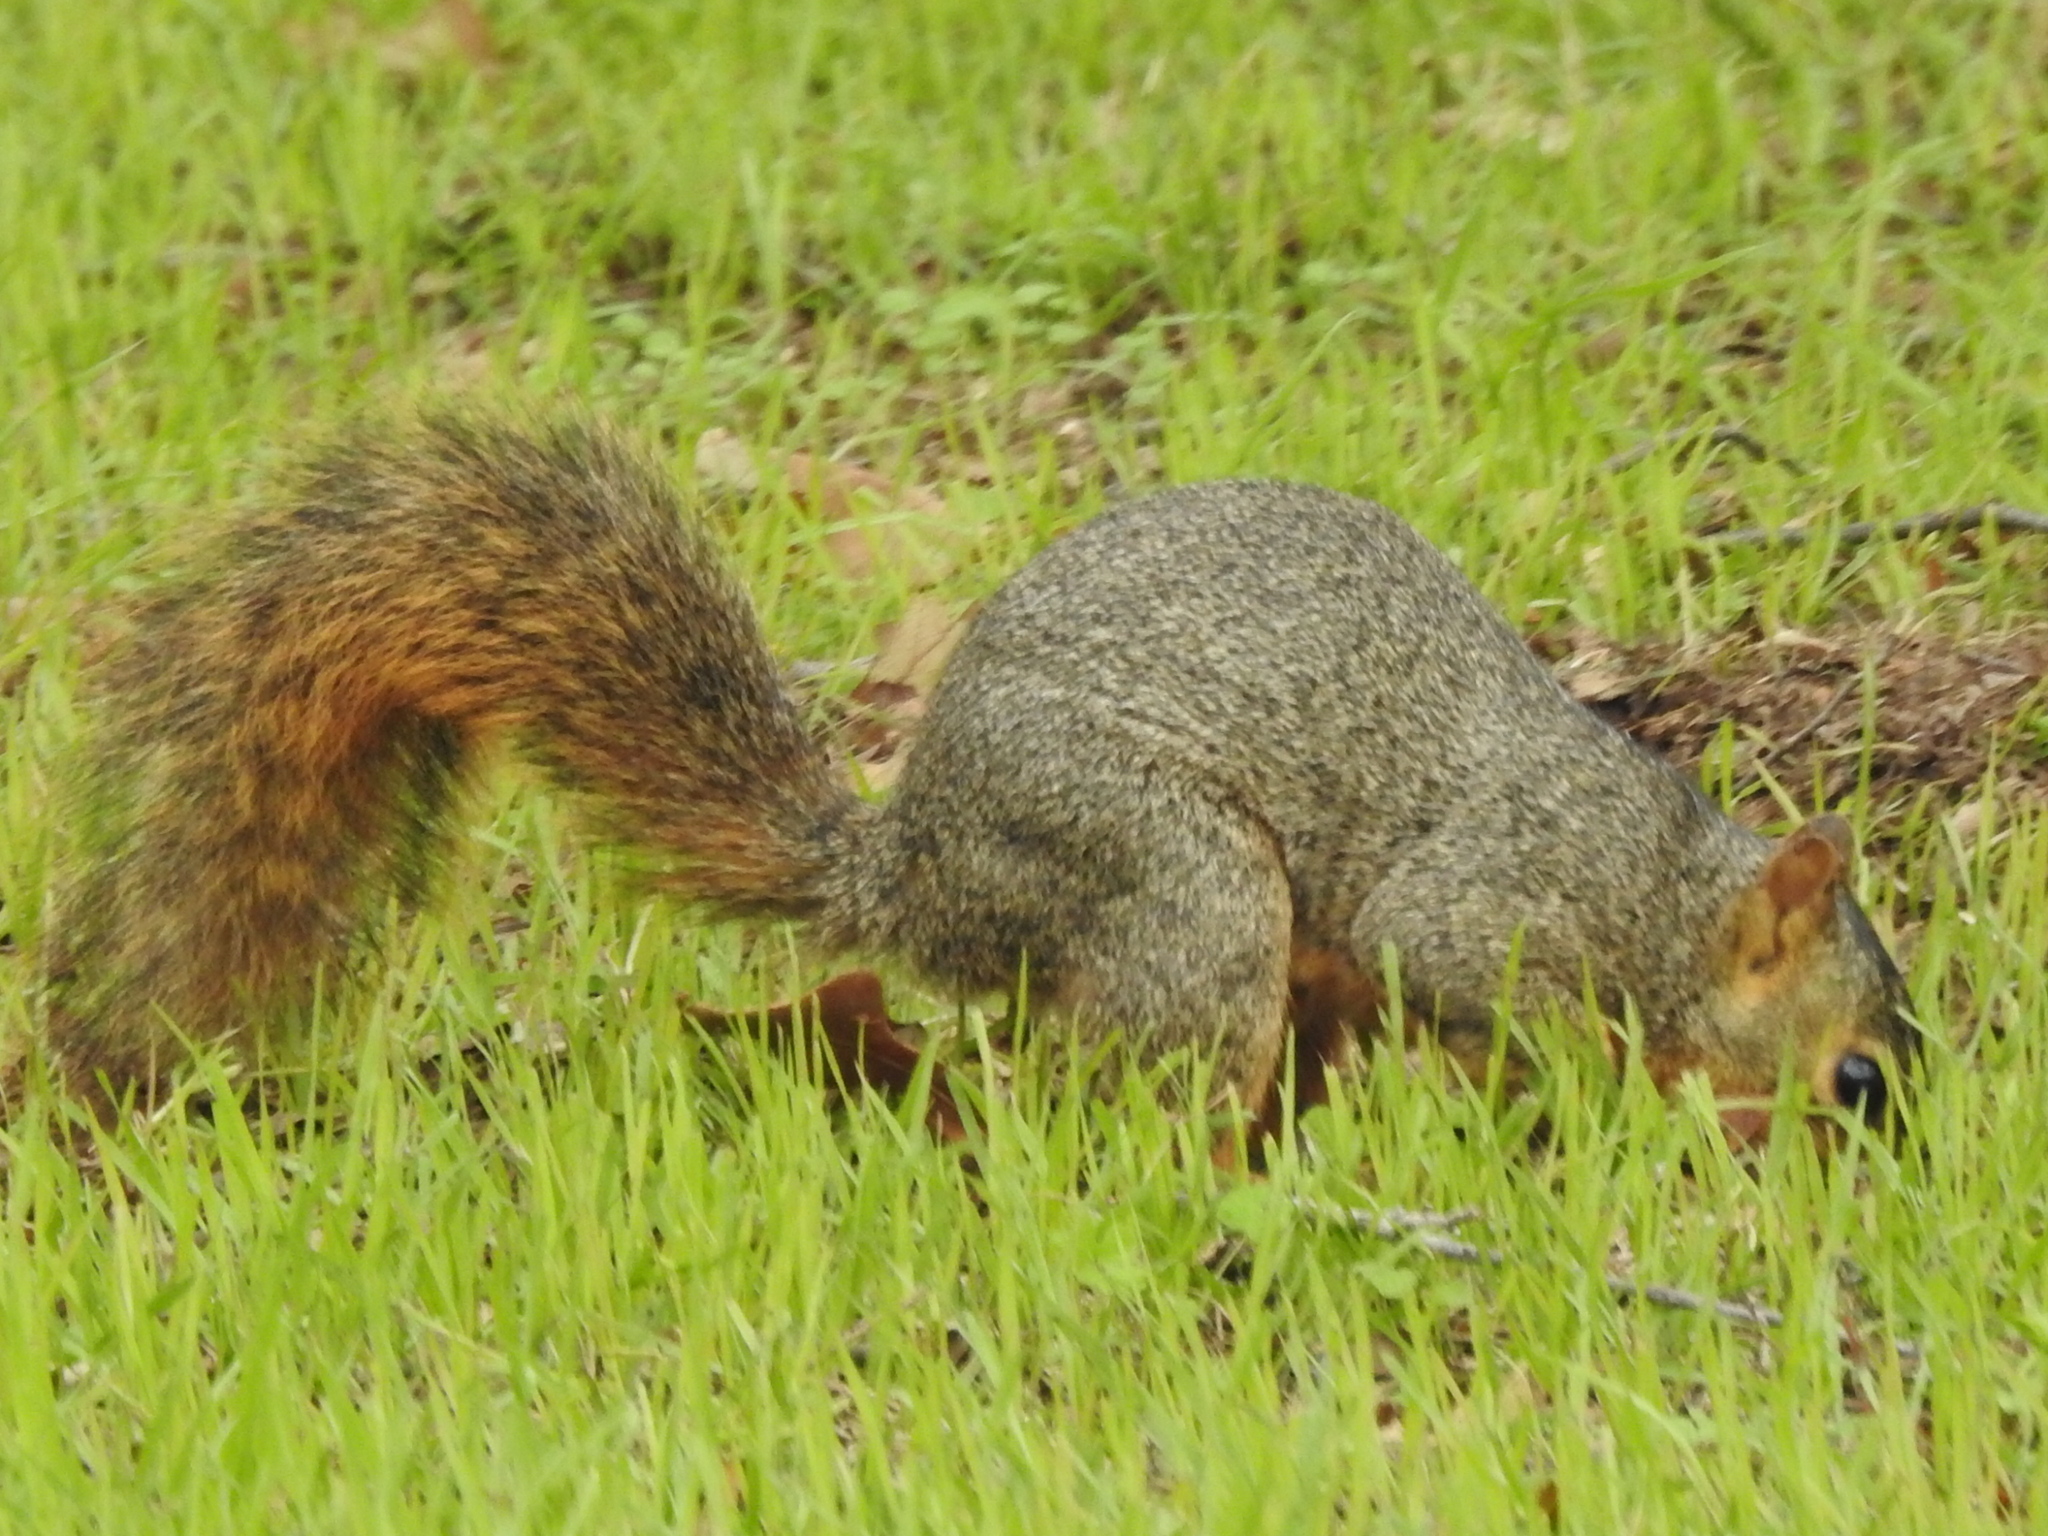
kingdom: Animalia
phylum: Chordata
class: Mammalia
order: Rodentia
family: Sciuridae
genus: Sciurus
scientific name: Sciurus niger
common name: Fox squirrel
